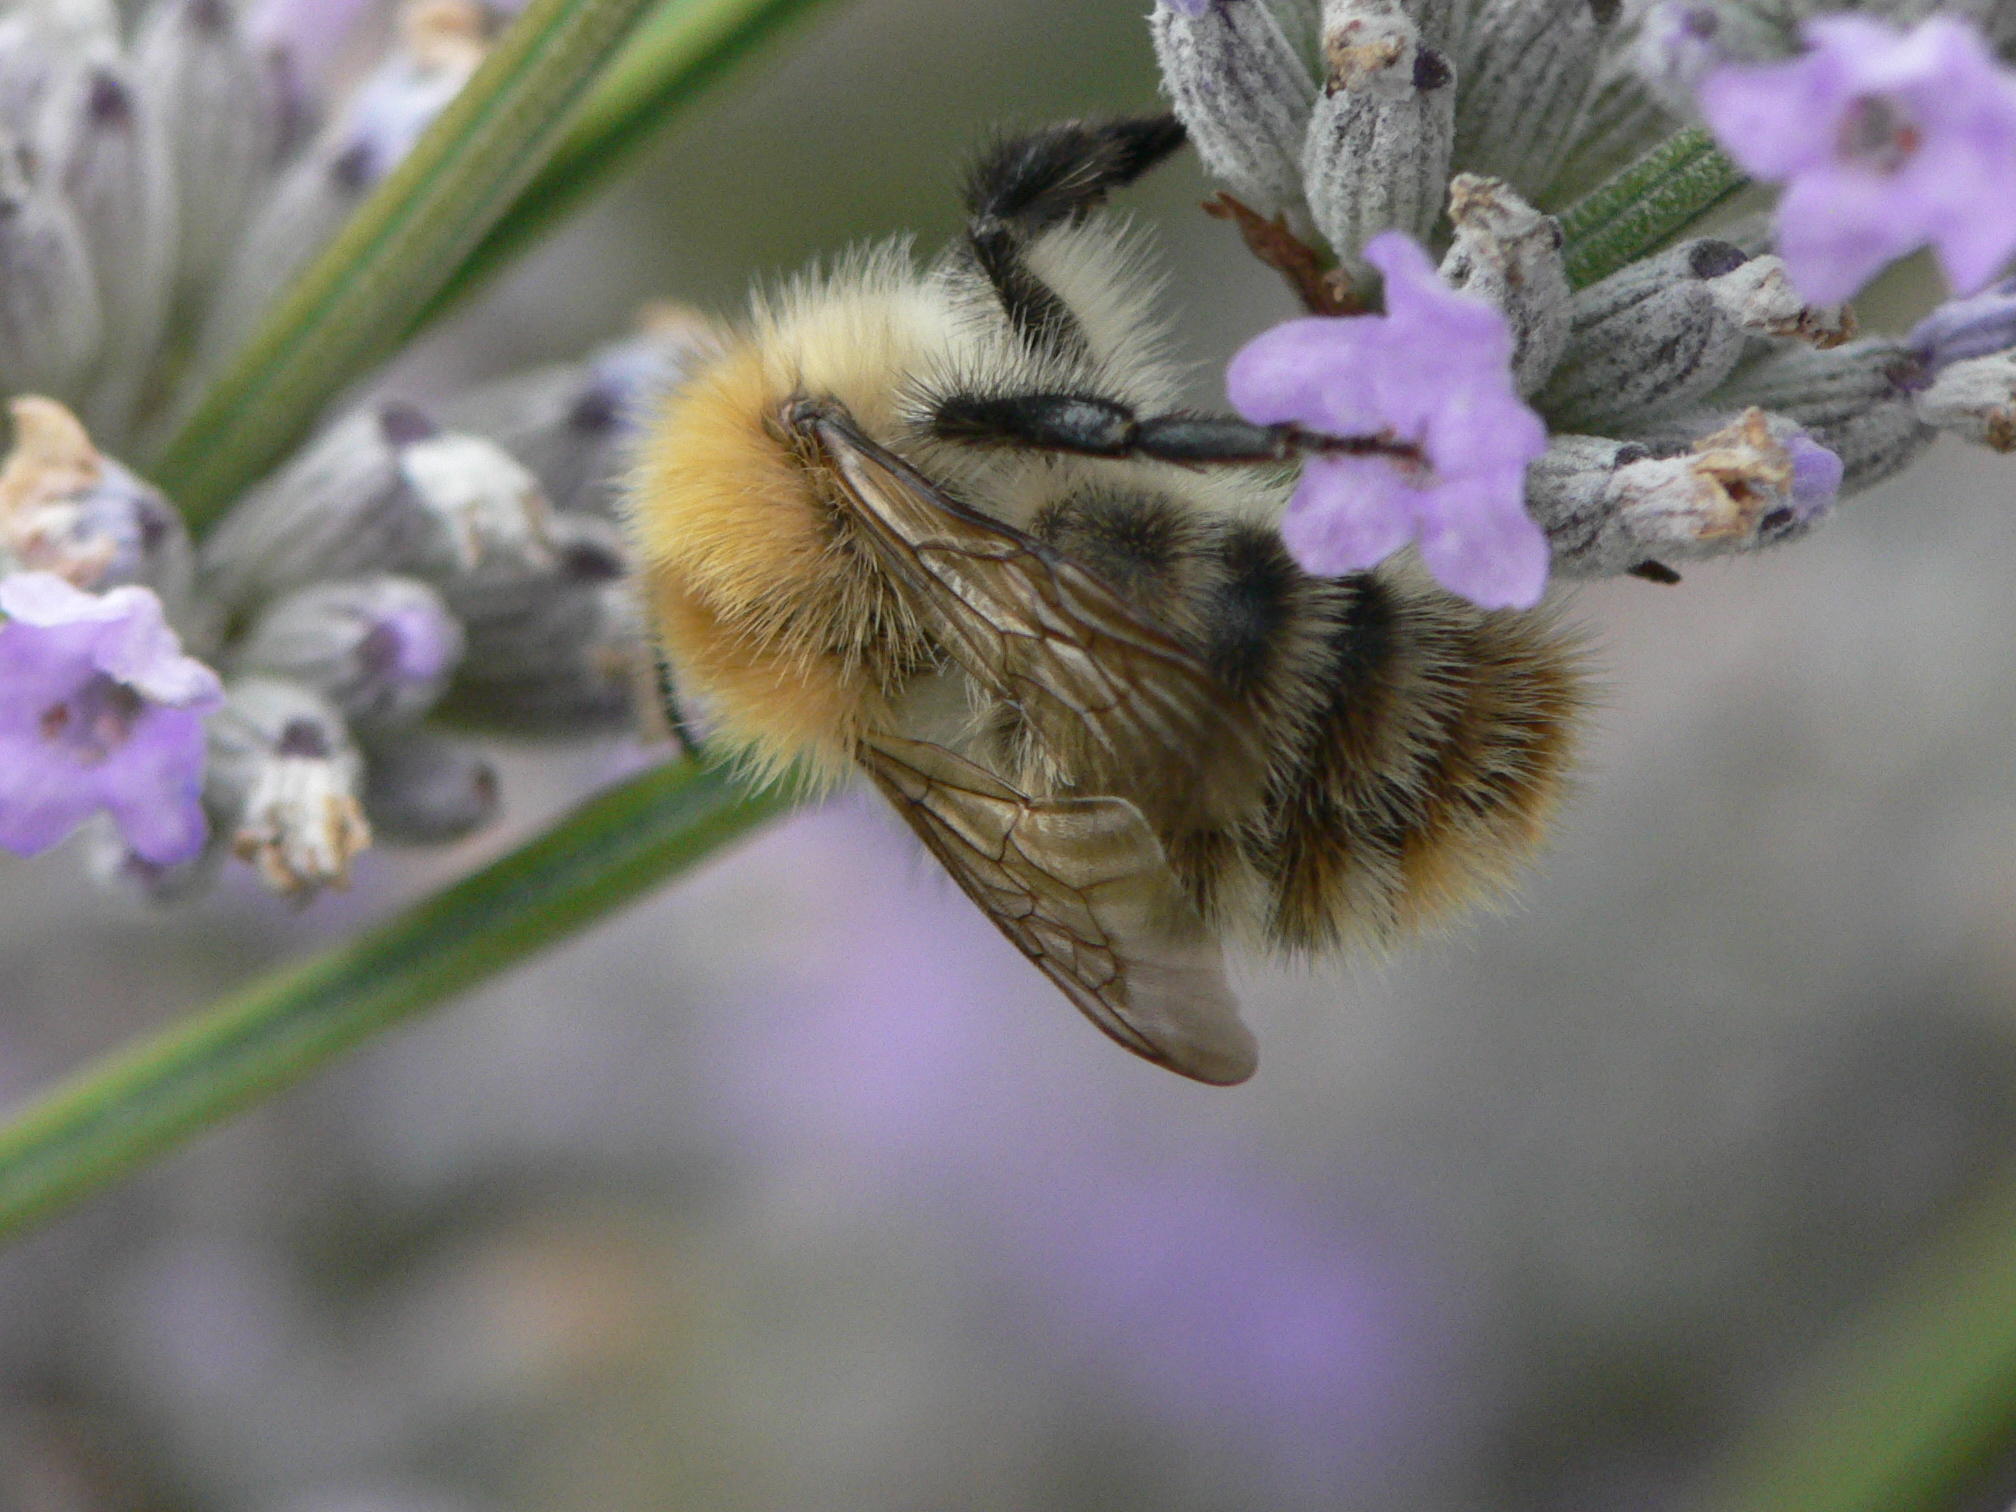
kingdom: Animalia
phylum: Arthropoda
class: Insecta
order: Hymenoptera
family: Apidae
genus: Bombus
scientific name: Bombus pascuorum
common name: Common carder bee
